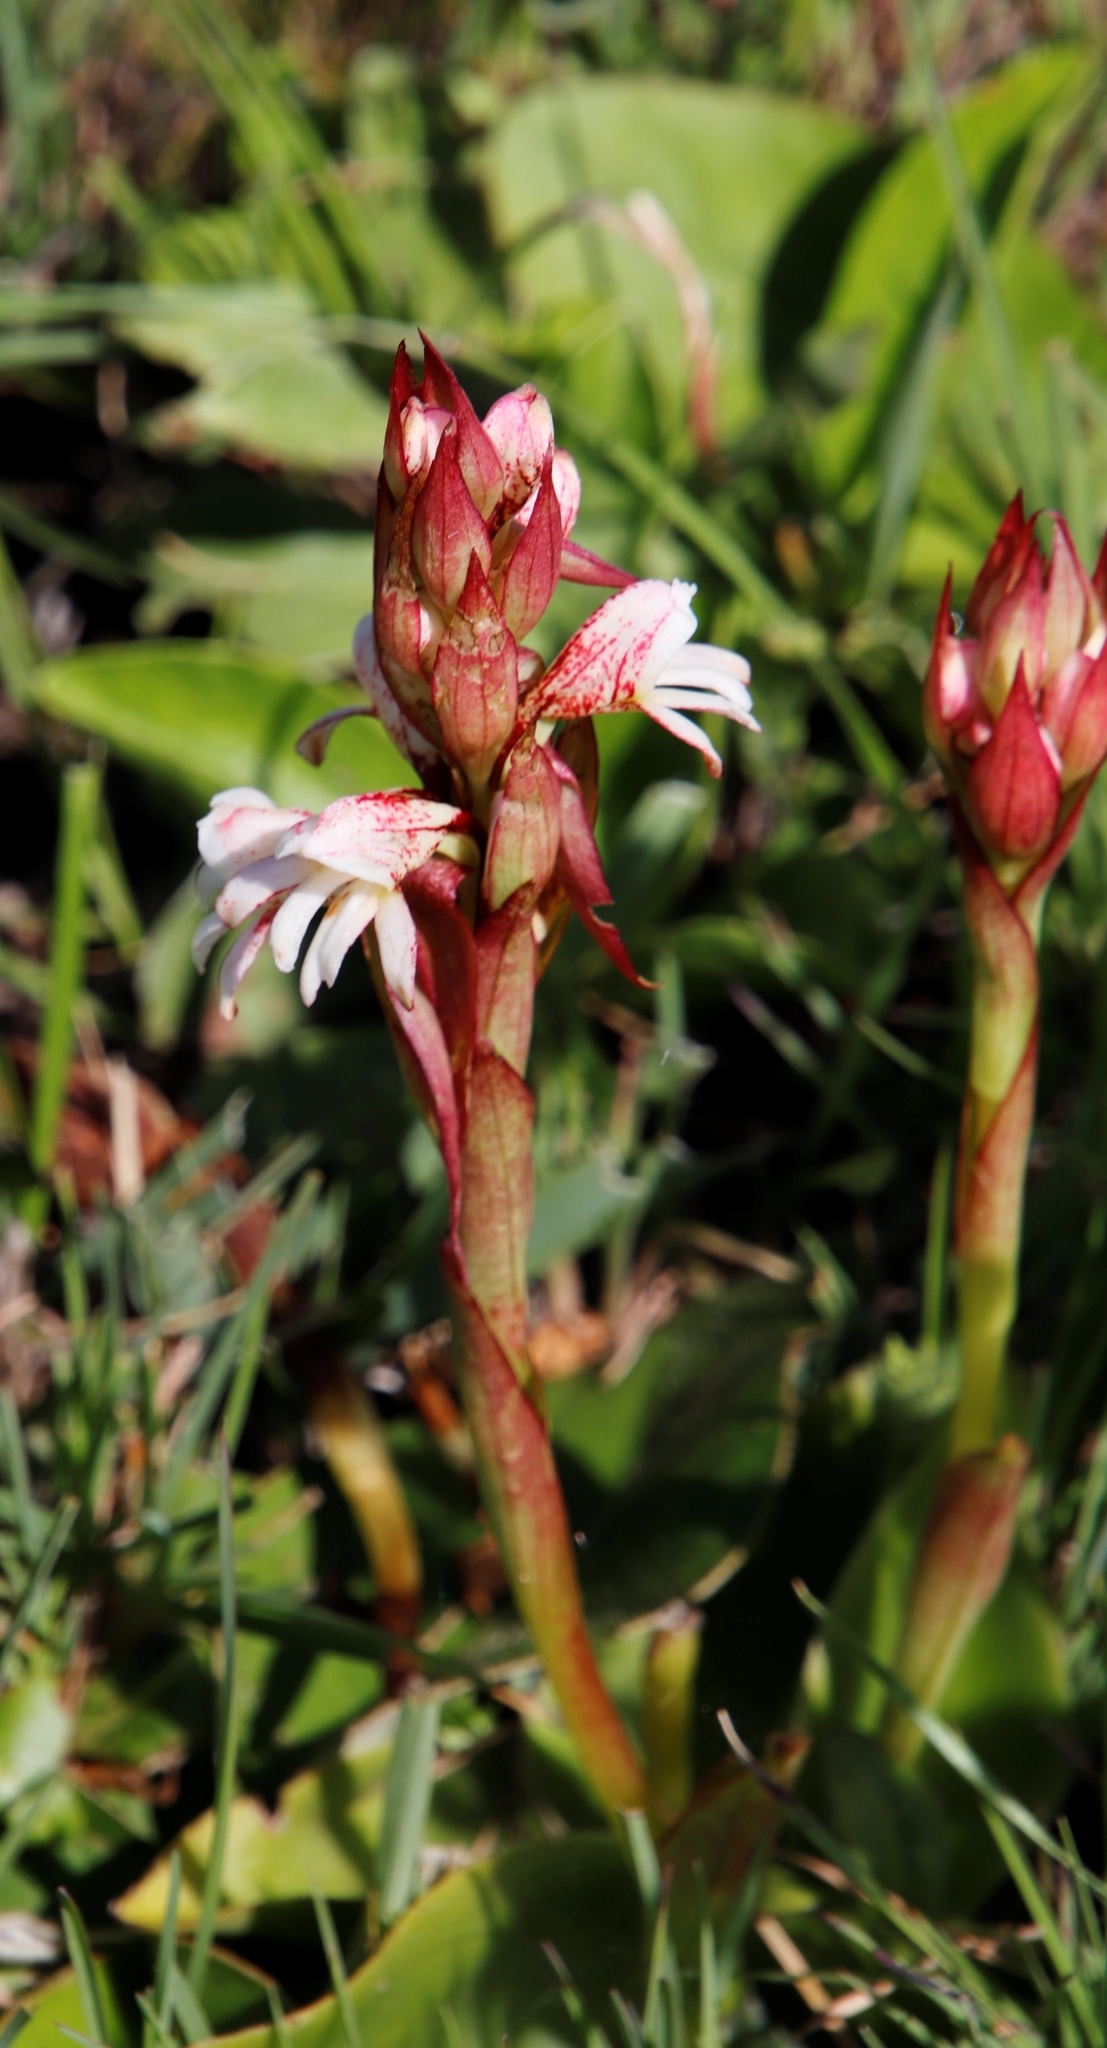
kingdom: Plantae
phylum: Tracheophyta
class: Liliopsida
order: Asparagales
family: Orchidaceae
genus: Satyrium
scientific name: Satyrium sphaerocarpum
